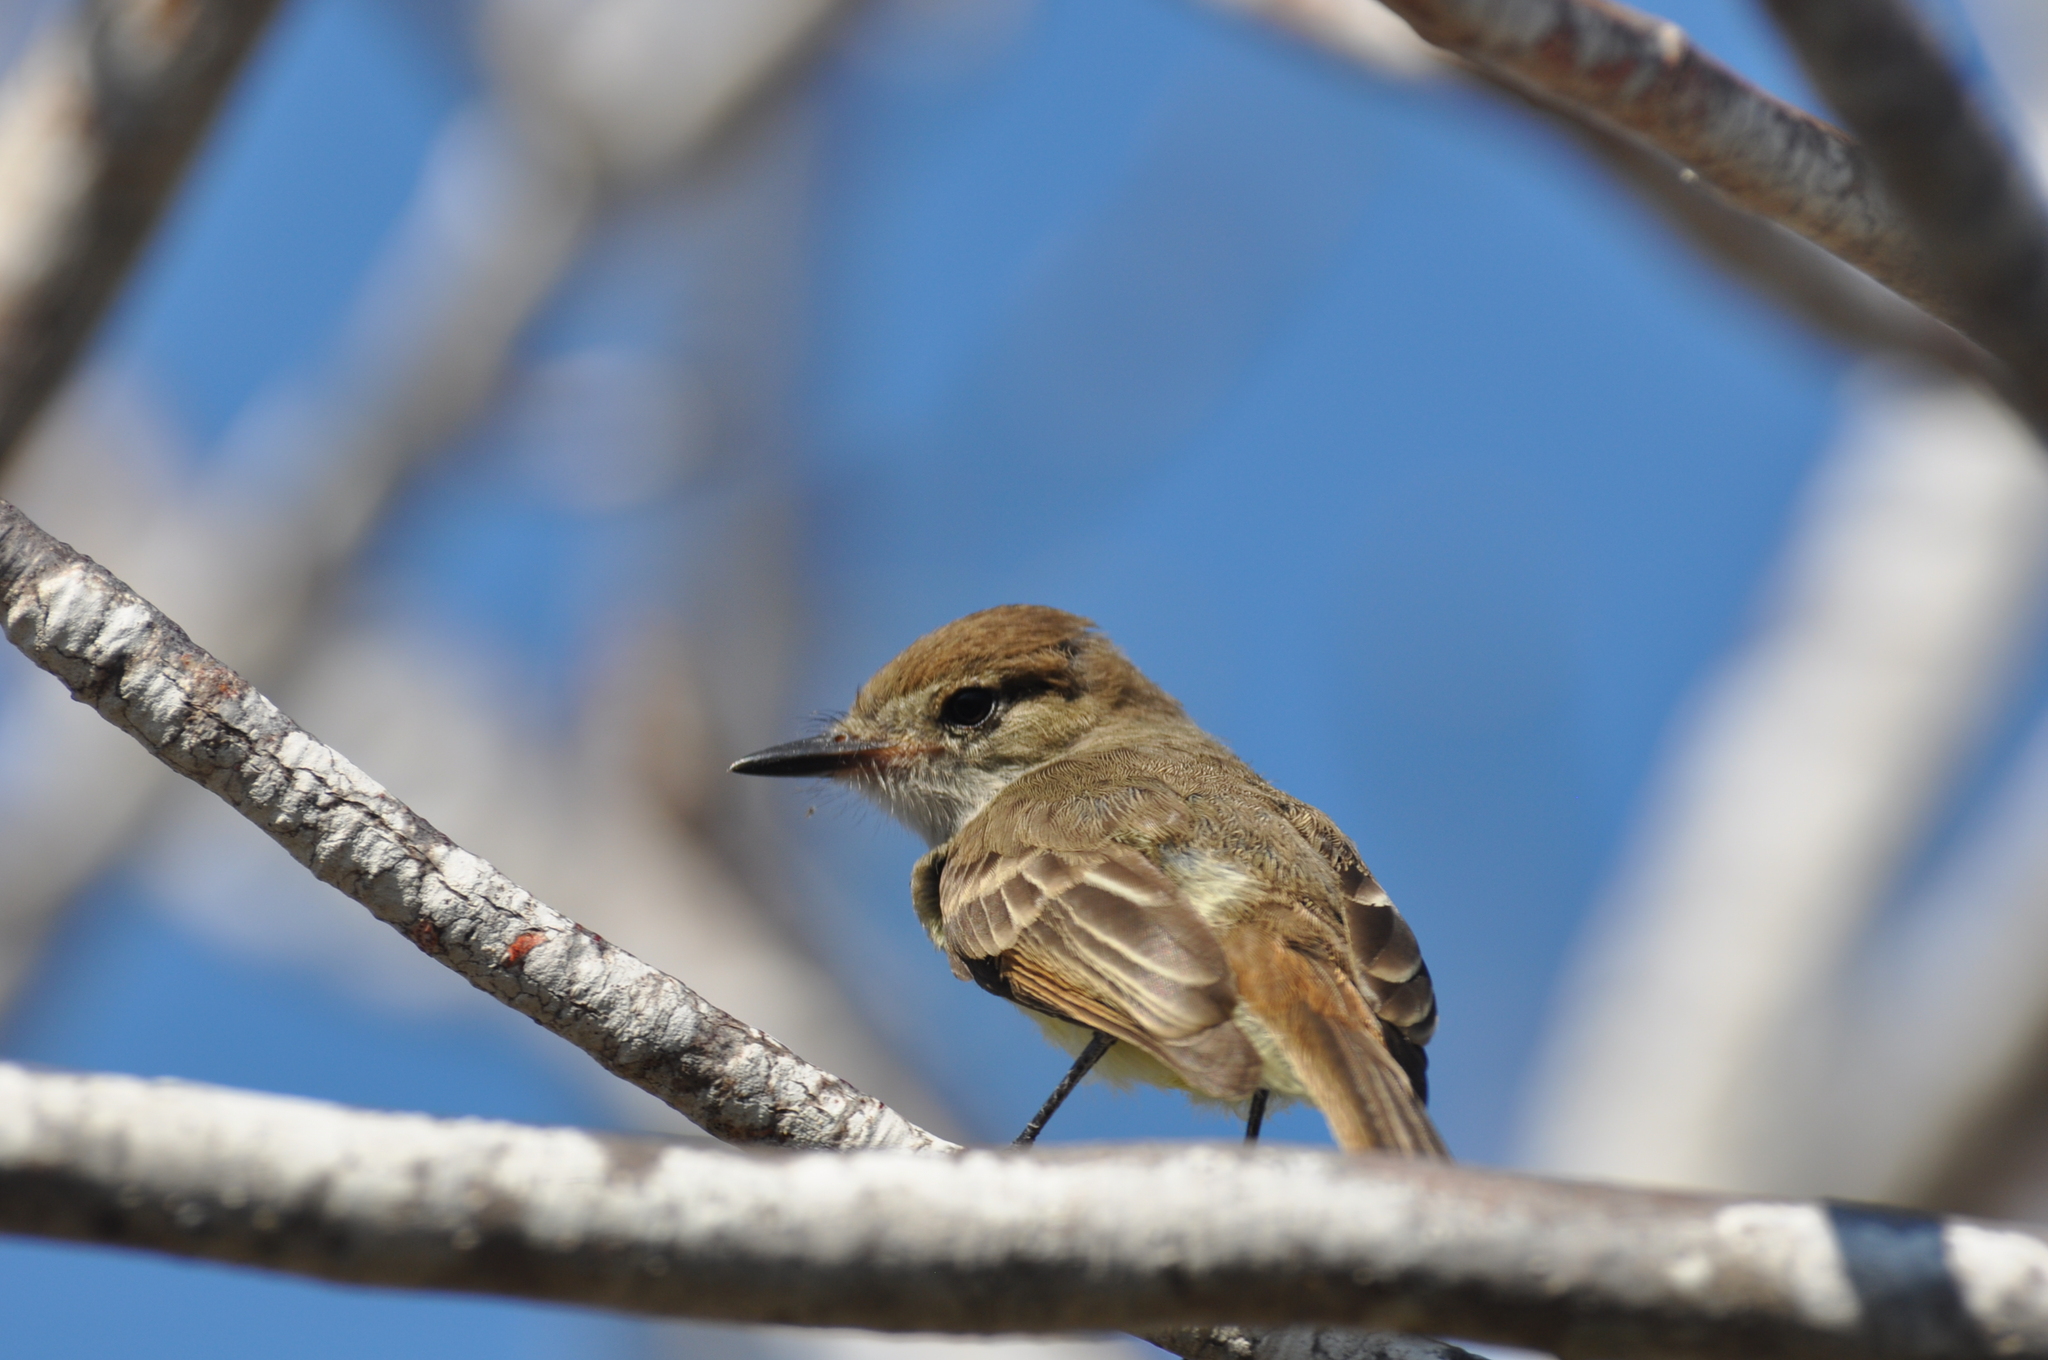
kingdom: Animalia
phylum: Chordata
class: Aves
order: Passeriformes
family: Tyrannidae
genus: Myiarchus
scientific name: Myiarchus magnirostris
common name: Galapagos flycatcher
